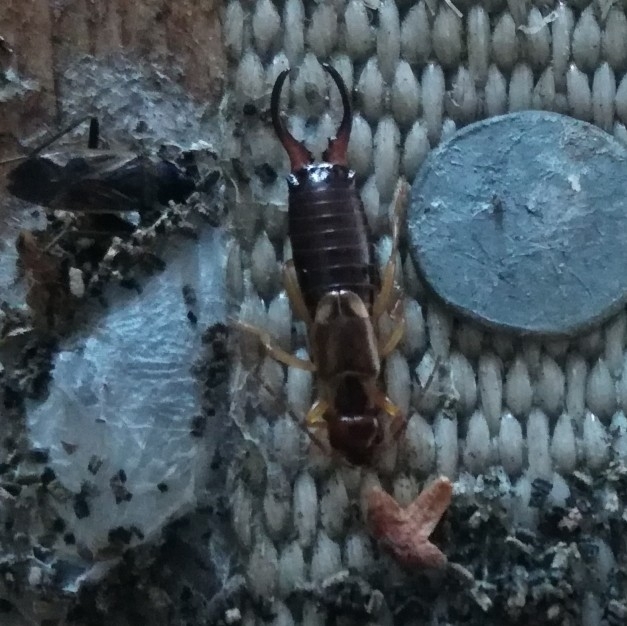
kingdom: Animalia
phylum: Arthropoda
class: Insecta
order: Dermaptera
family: Forficulidae
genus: Forficula
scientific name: Forficula
